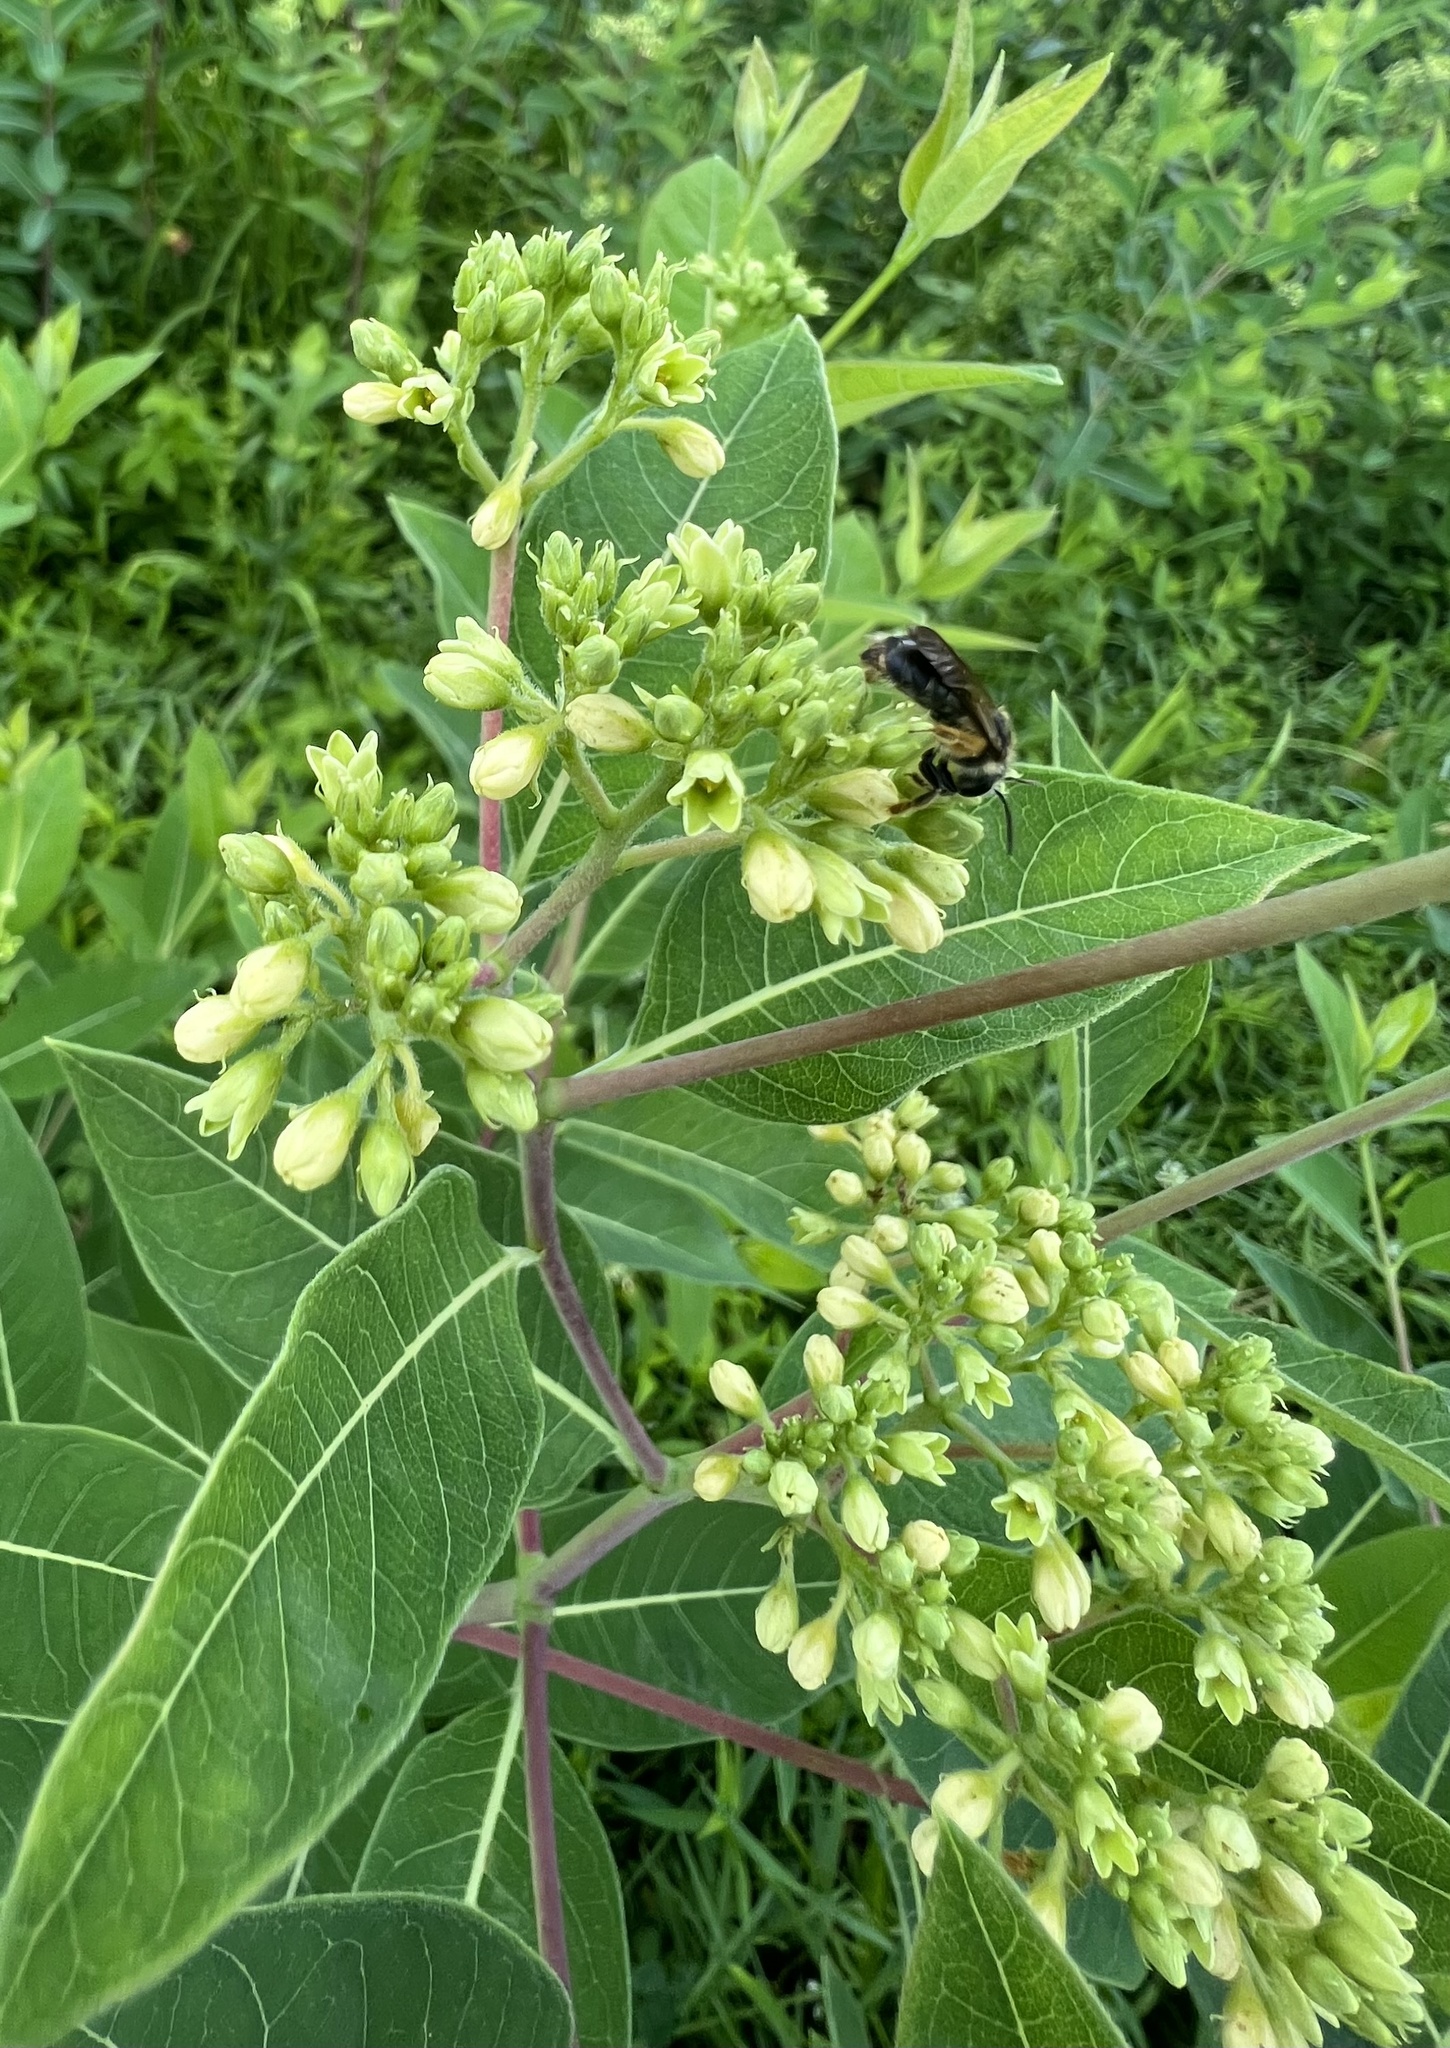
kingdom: Plantae
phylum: Tracheophyta
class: Magnoliopsida
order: Gentianales
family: Apocynaceae
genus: Apocynum
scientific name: Apocynum cannabinum
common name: Hemp dogbane
